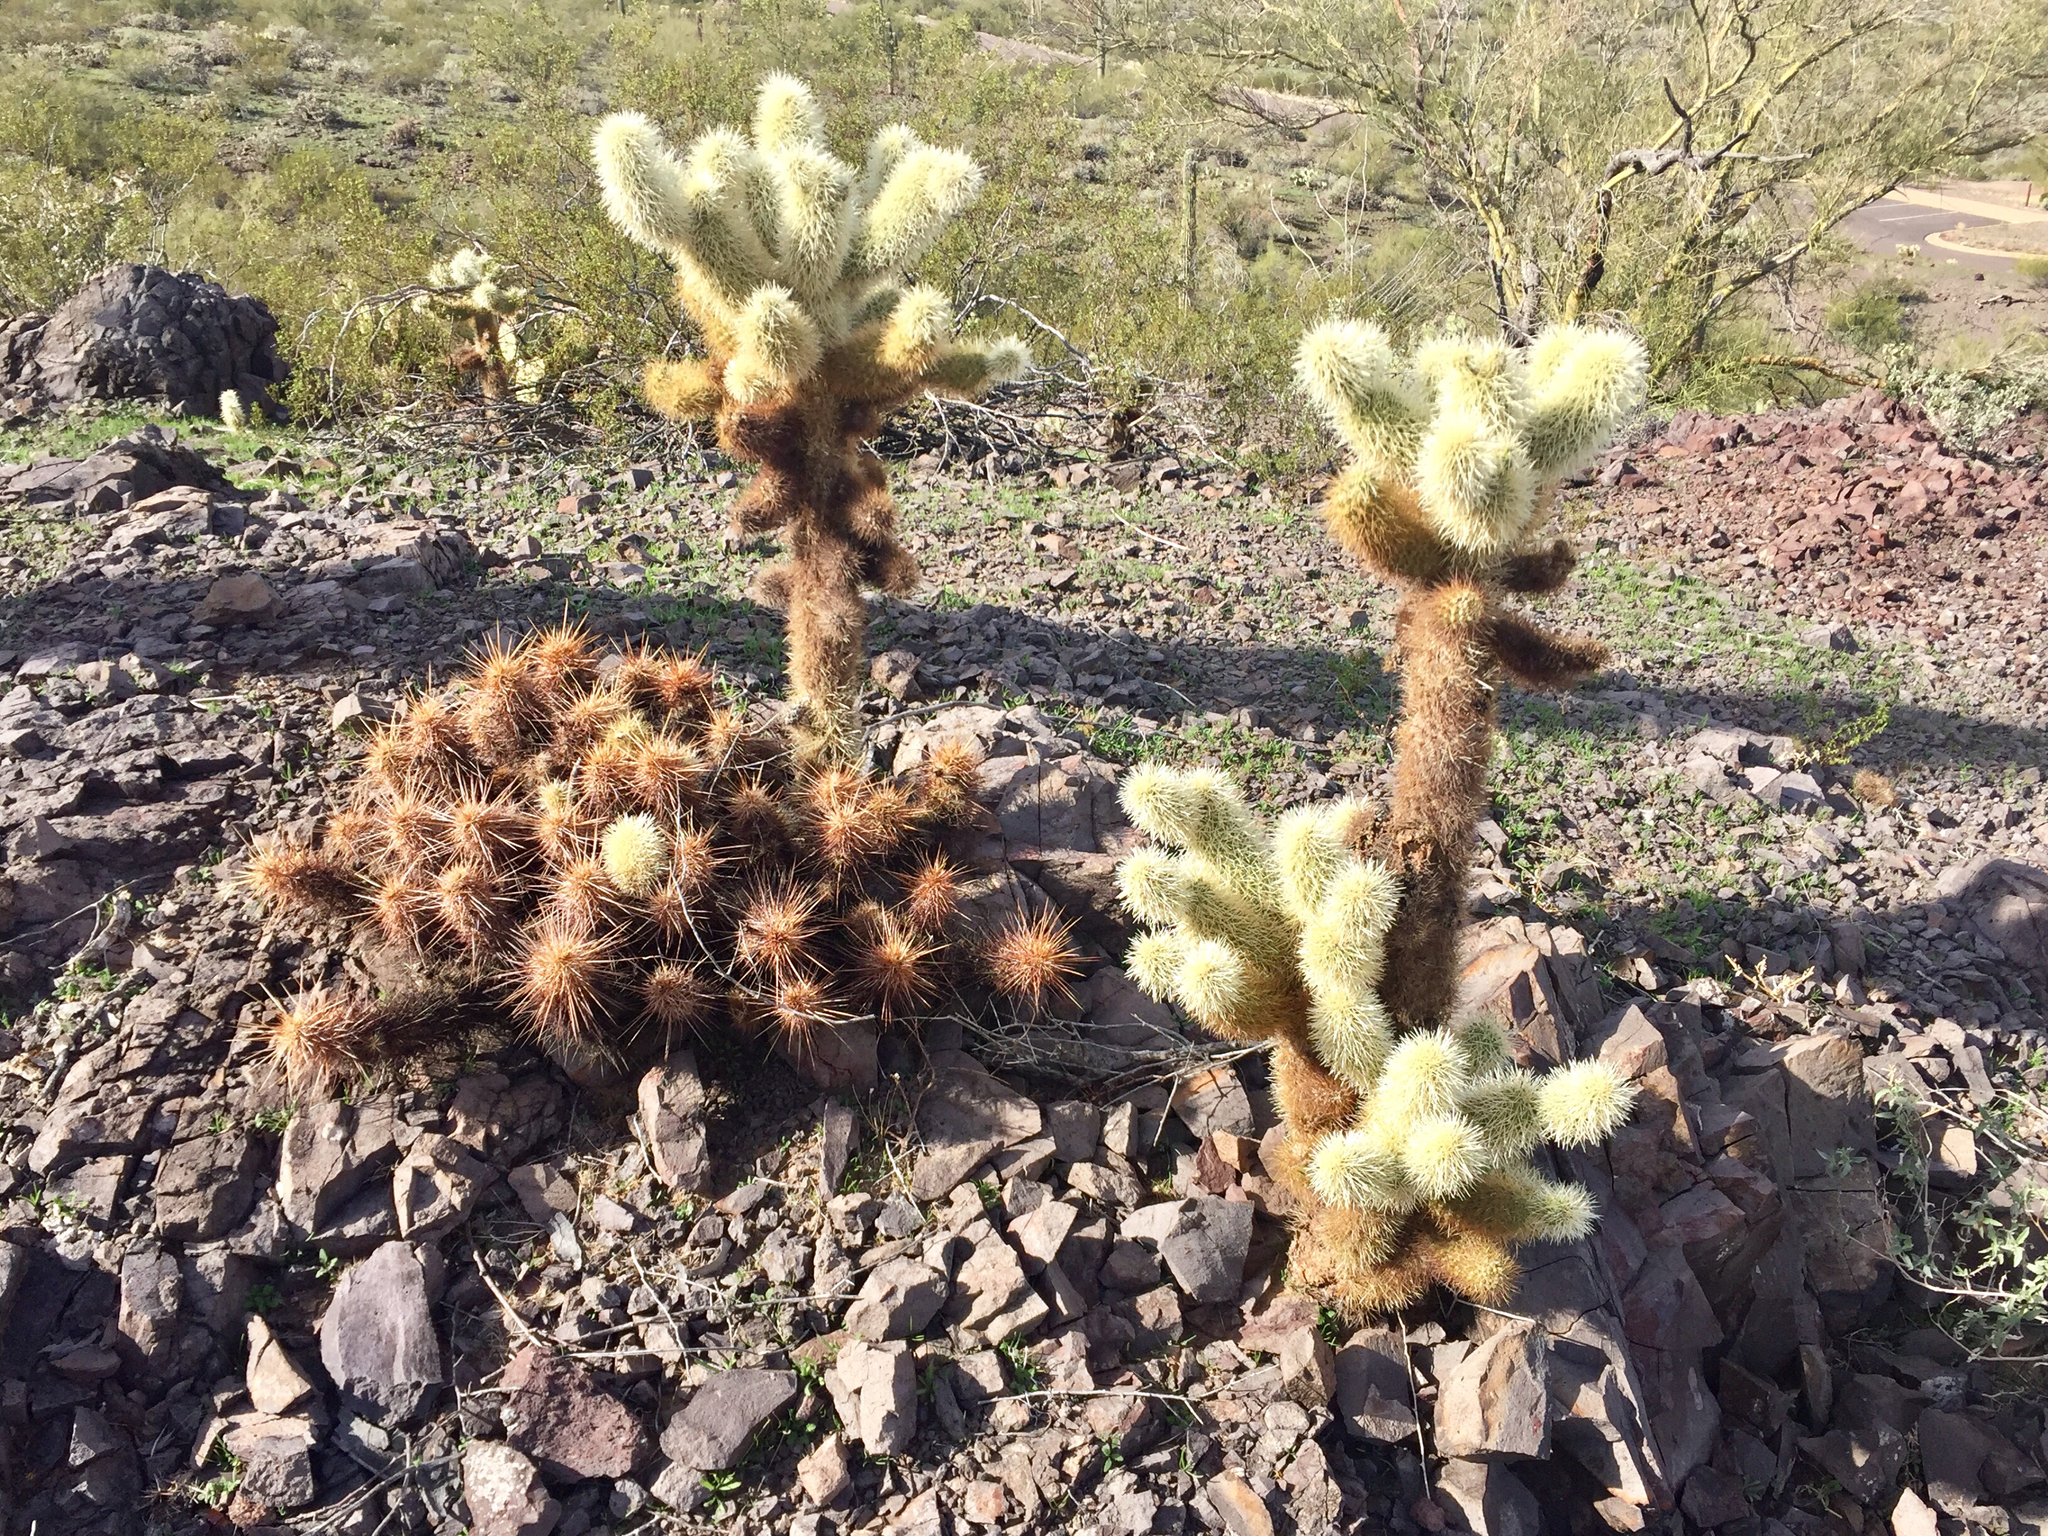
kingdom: Plantae
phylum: Tracheophyta
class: Magnoliopsida
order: Caryophyllales
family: Cactaceae
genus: Cylindropuntia
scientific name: Cylindropuntia fosbergii
